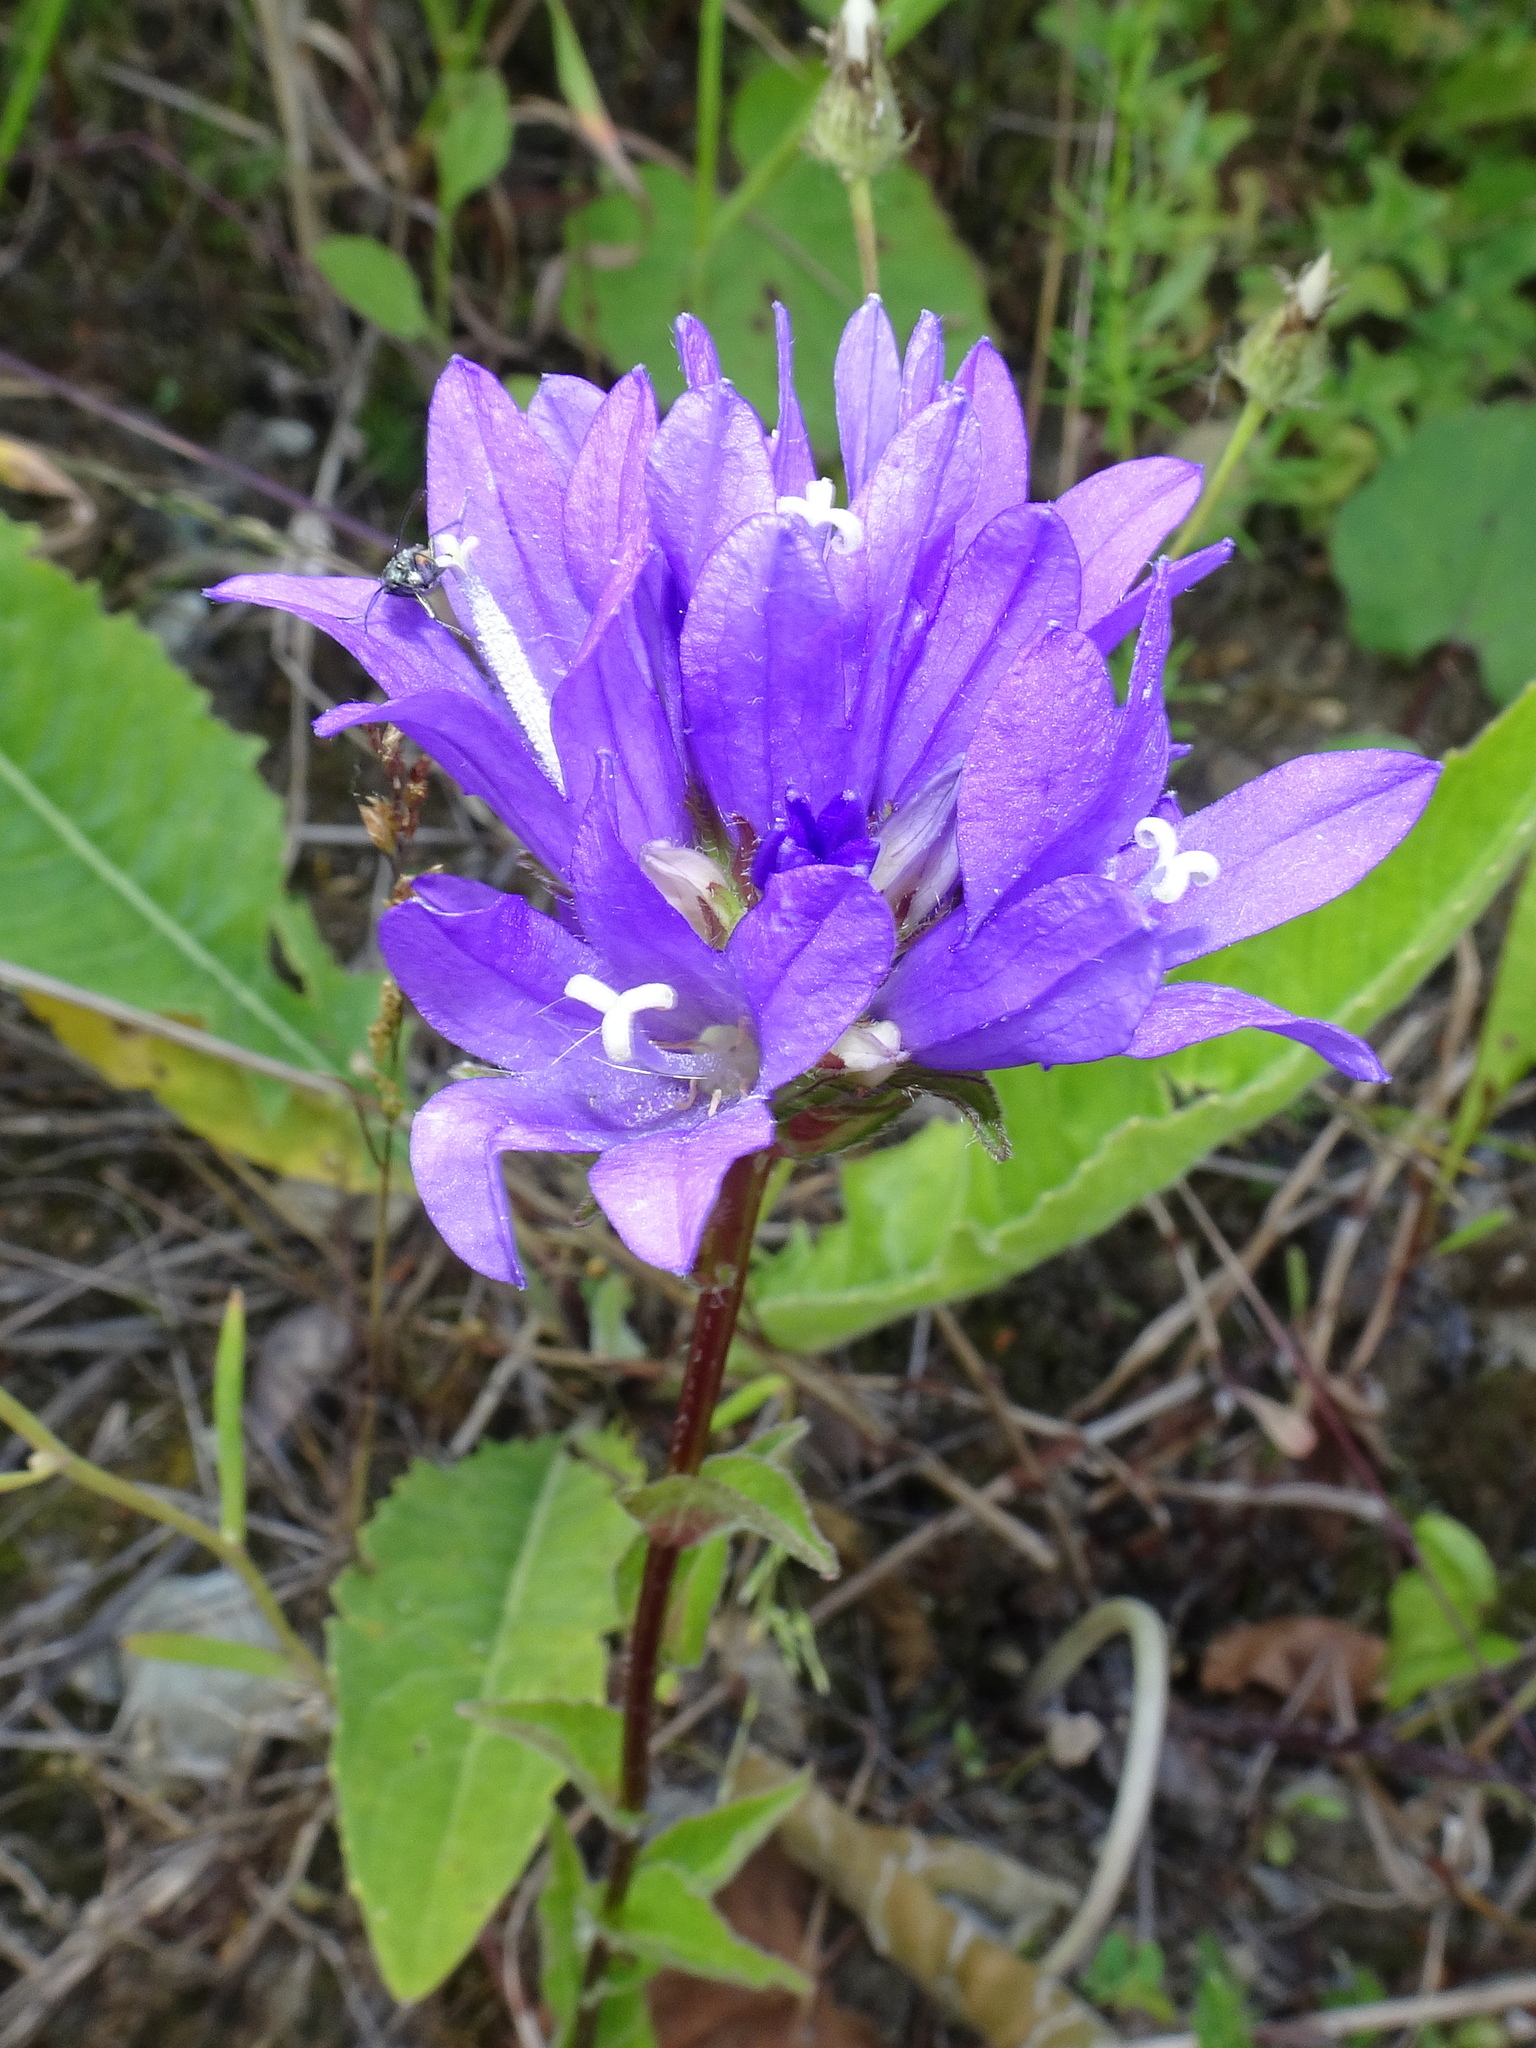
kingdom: Plantae
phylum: Tracheophyta
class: Magnoliopsida
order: Asterales
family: Campanulaceae
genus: Campanula
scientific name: Campanula glomerata
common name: Clustered bellflower
